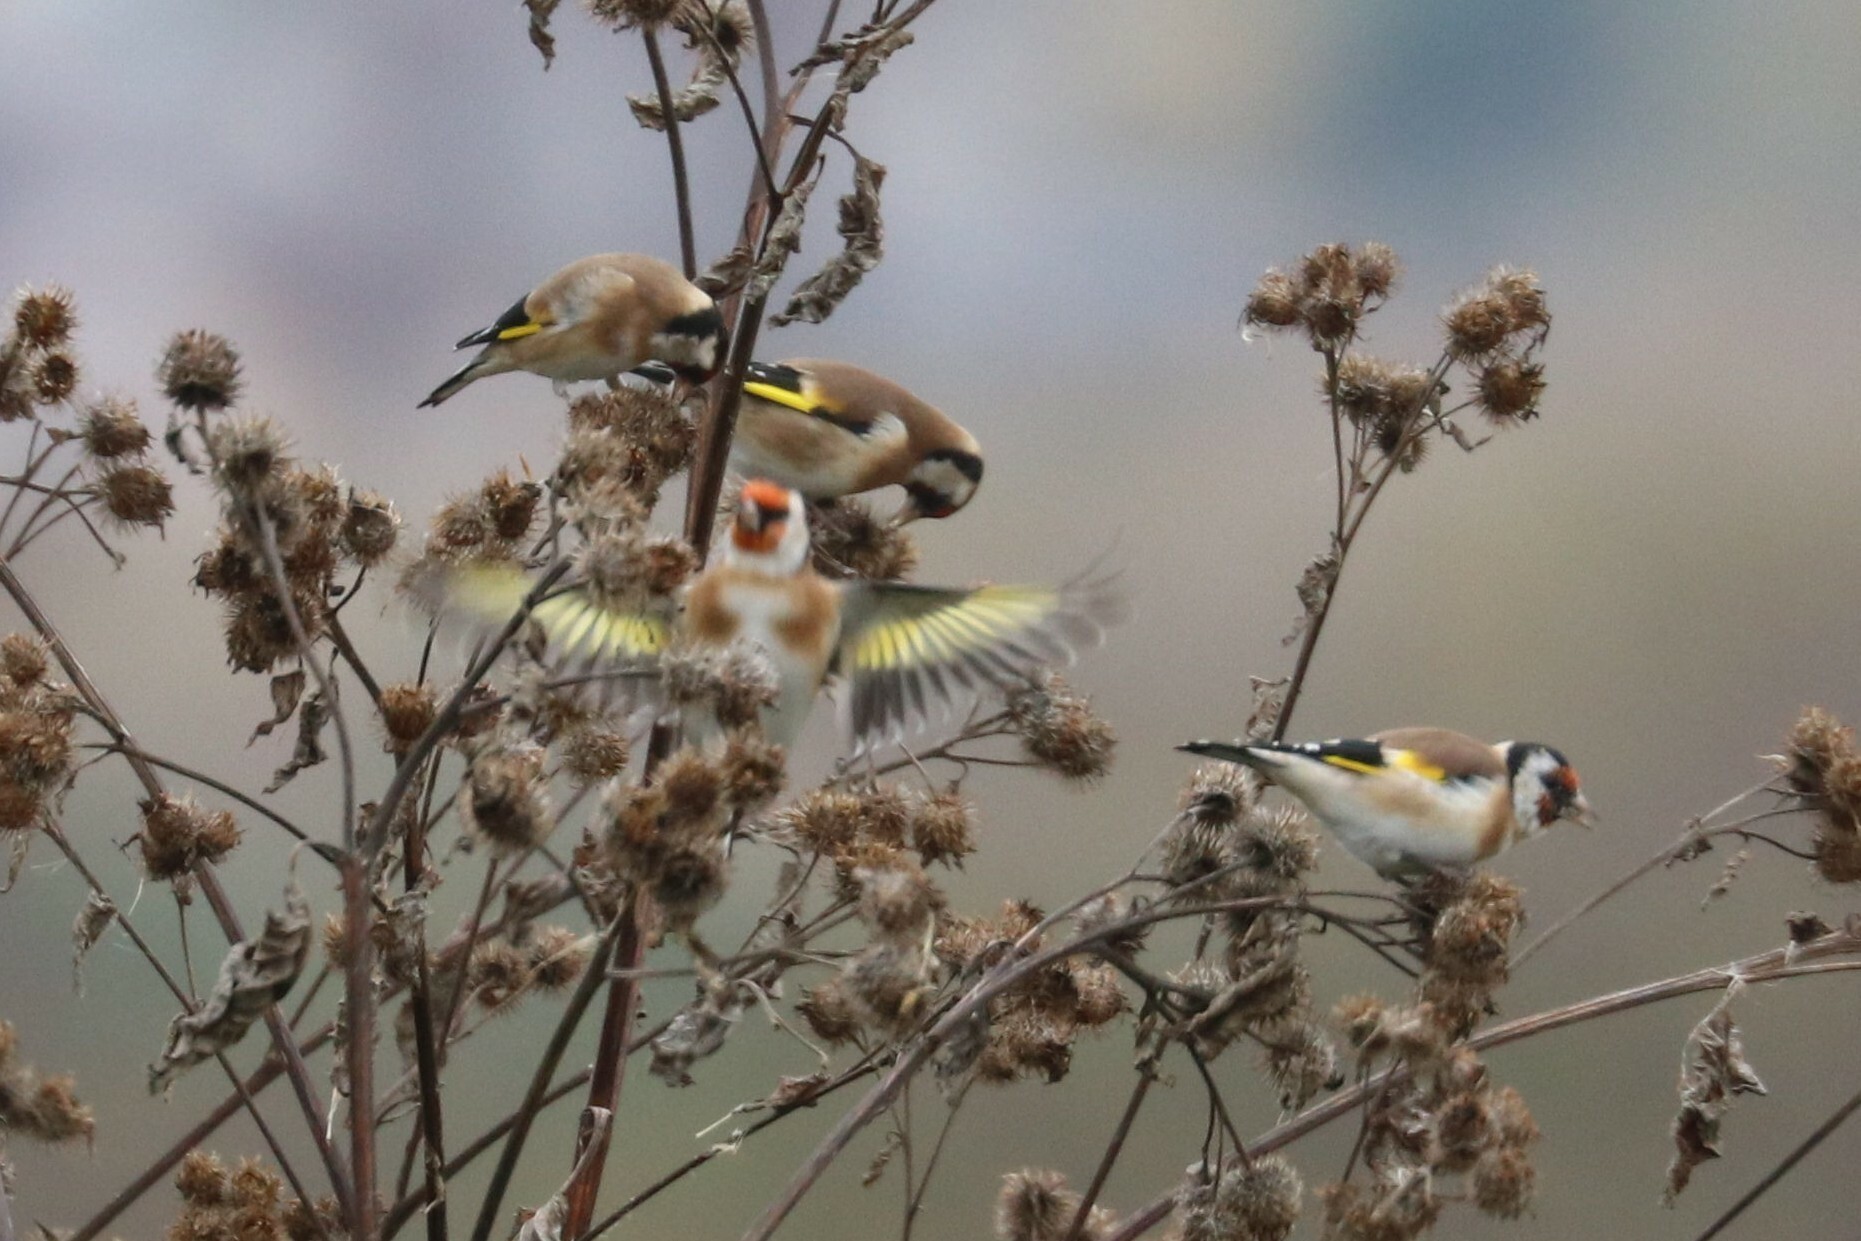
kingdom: Animalia
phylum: Chordata
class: Aves
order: Passeriformes
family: Fringillidae
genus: Carduelis
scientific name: Carduelis carduelis
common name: European goldfinch
